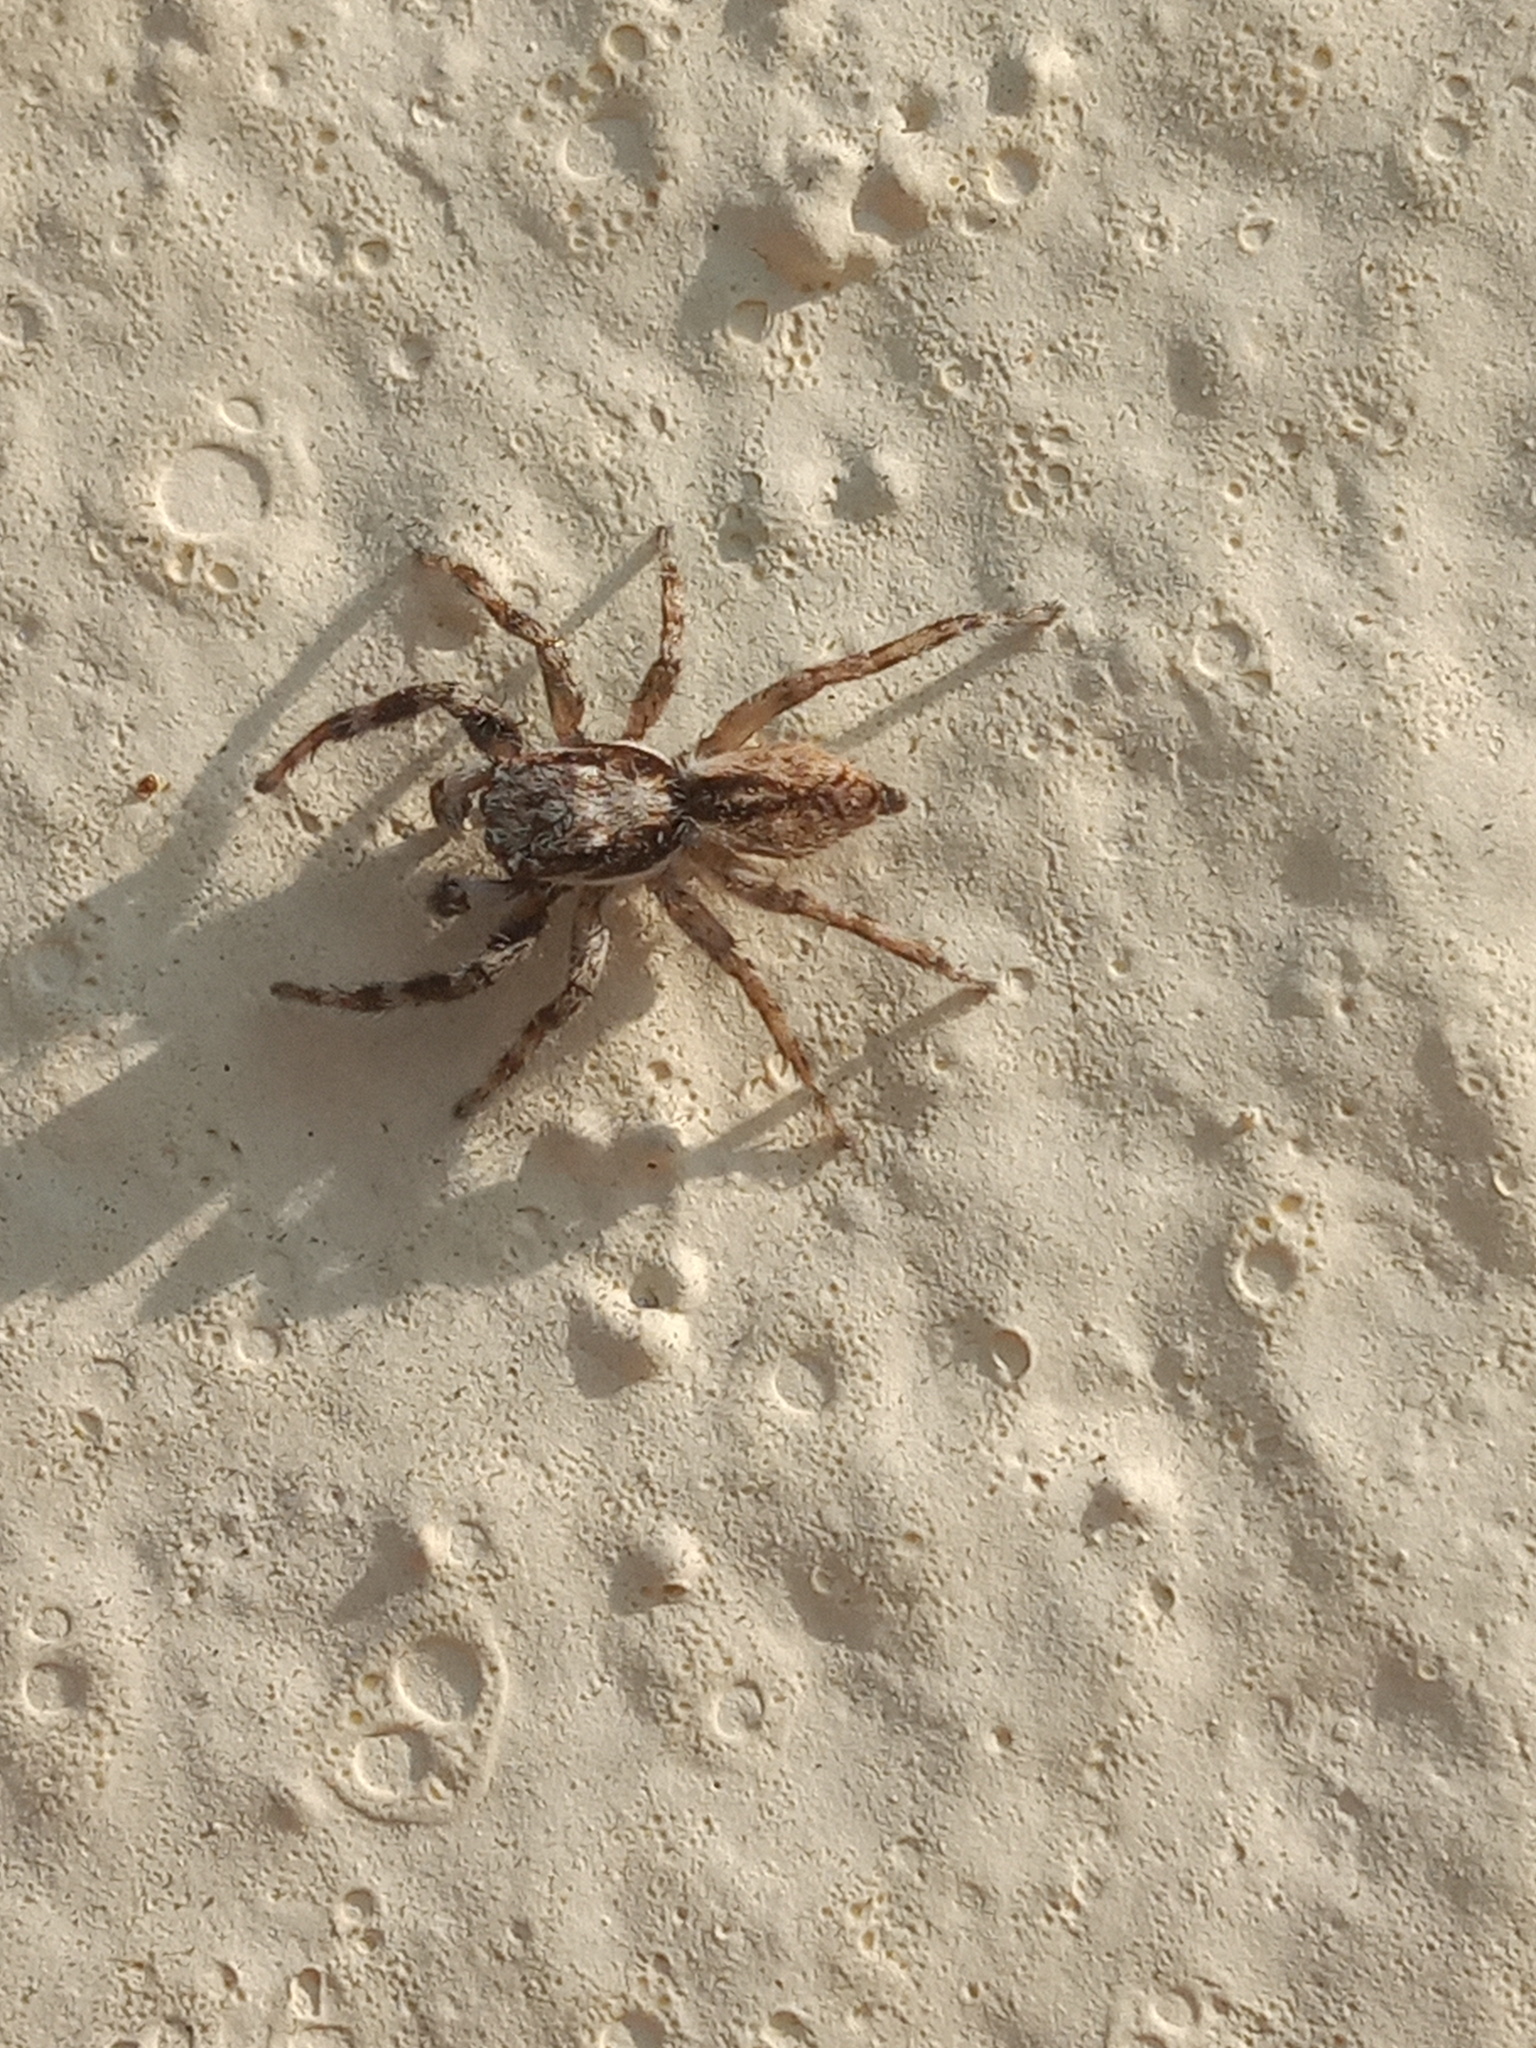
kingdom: Animalia
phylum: Arthropoda
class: Arachnida
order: Araneae
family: Salticidae
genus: Menemerus
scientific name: Menemerus bivittatus
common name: Gray wall jumper
